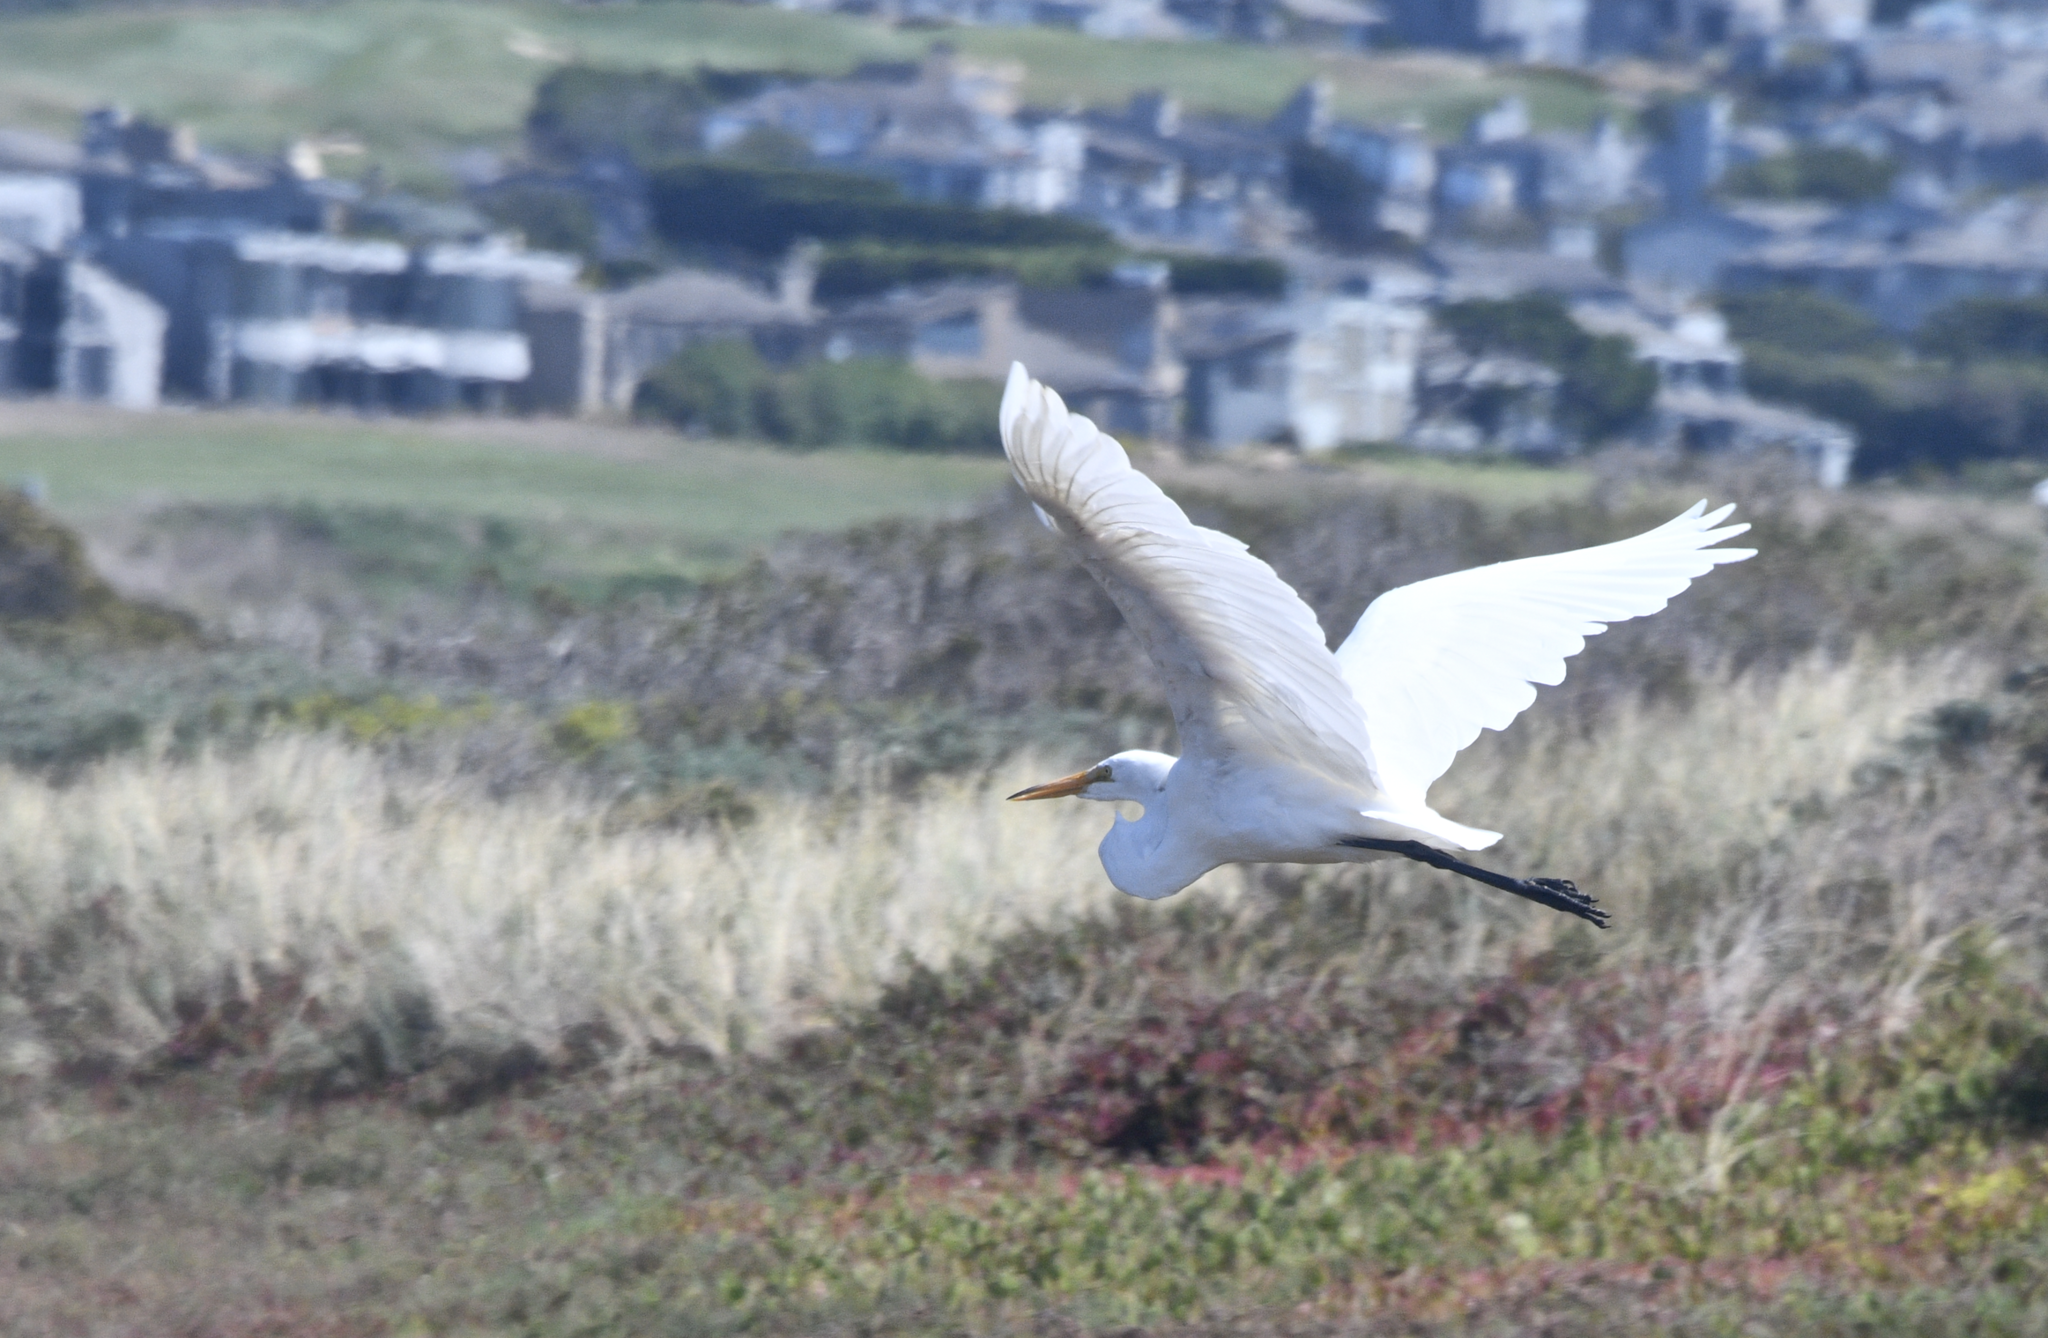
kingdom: Animalia
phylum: Chordata
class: Aves
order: Pelecaniformes
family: Ardeidae
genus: Ardea
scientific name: Ardea alba
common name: Great egret
